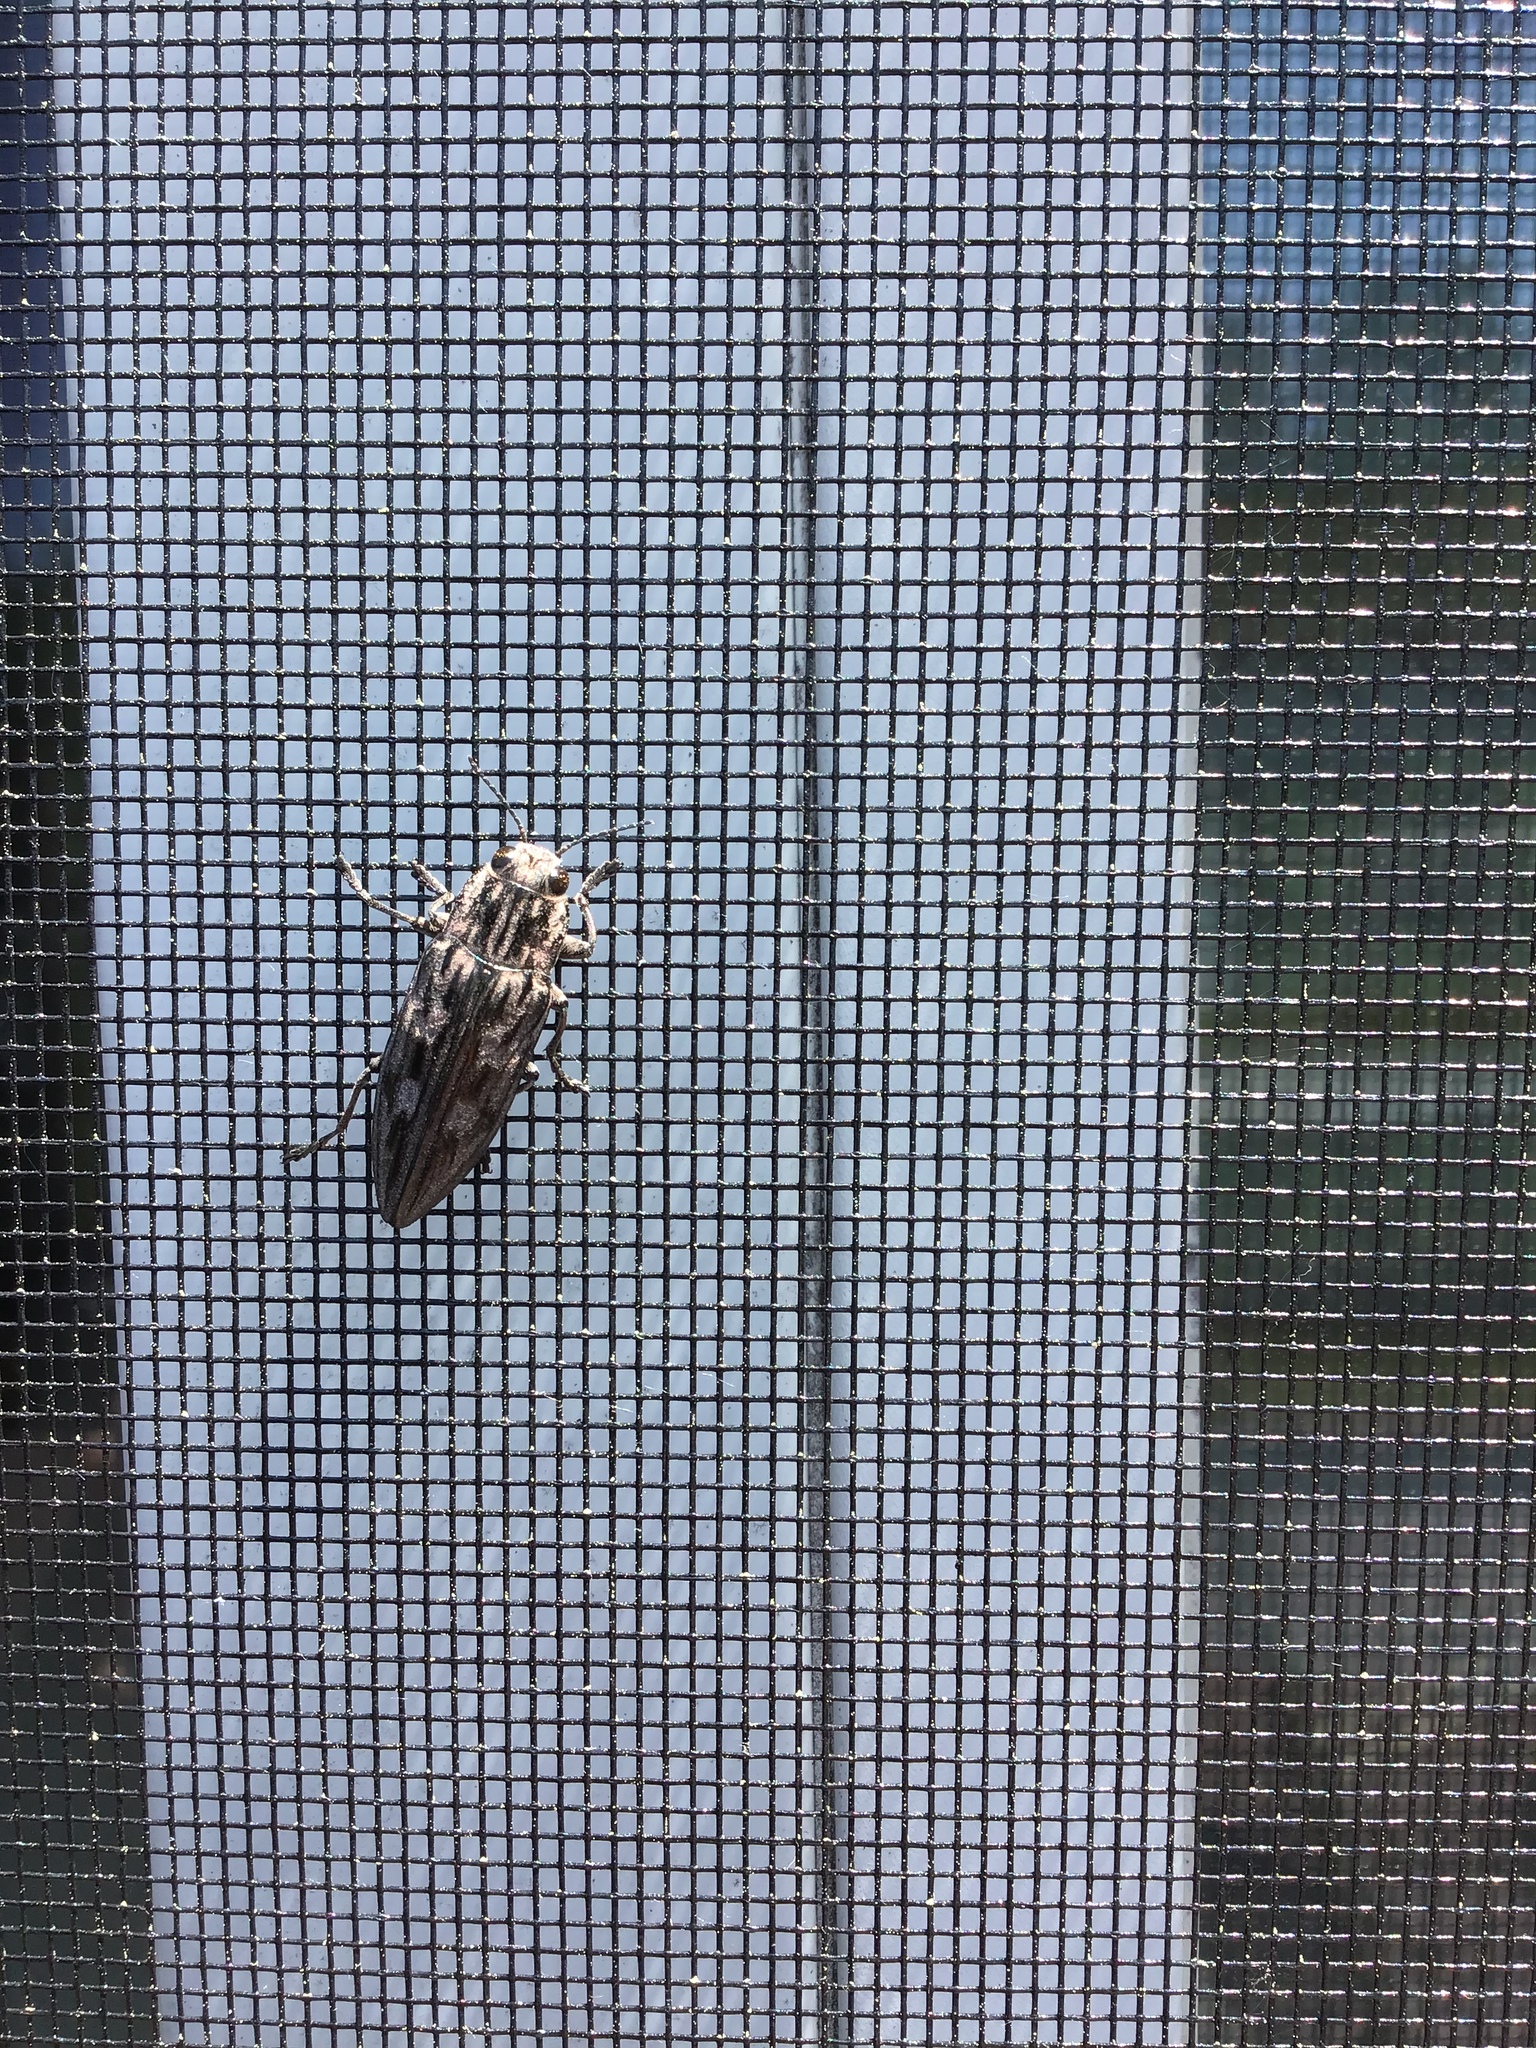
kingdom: Animalia
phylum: Arthropoda
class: Insecta
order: Coleoptera
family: Buprestidae
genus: Chalcophora
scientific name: Chalcophora virginiensis
